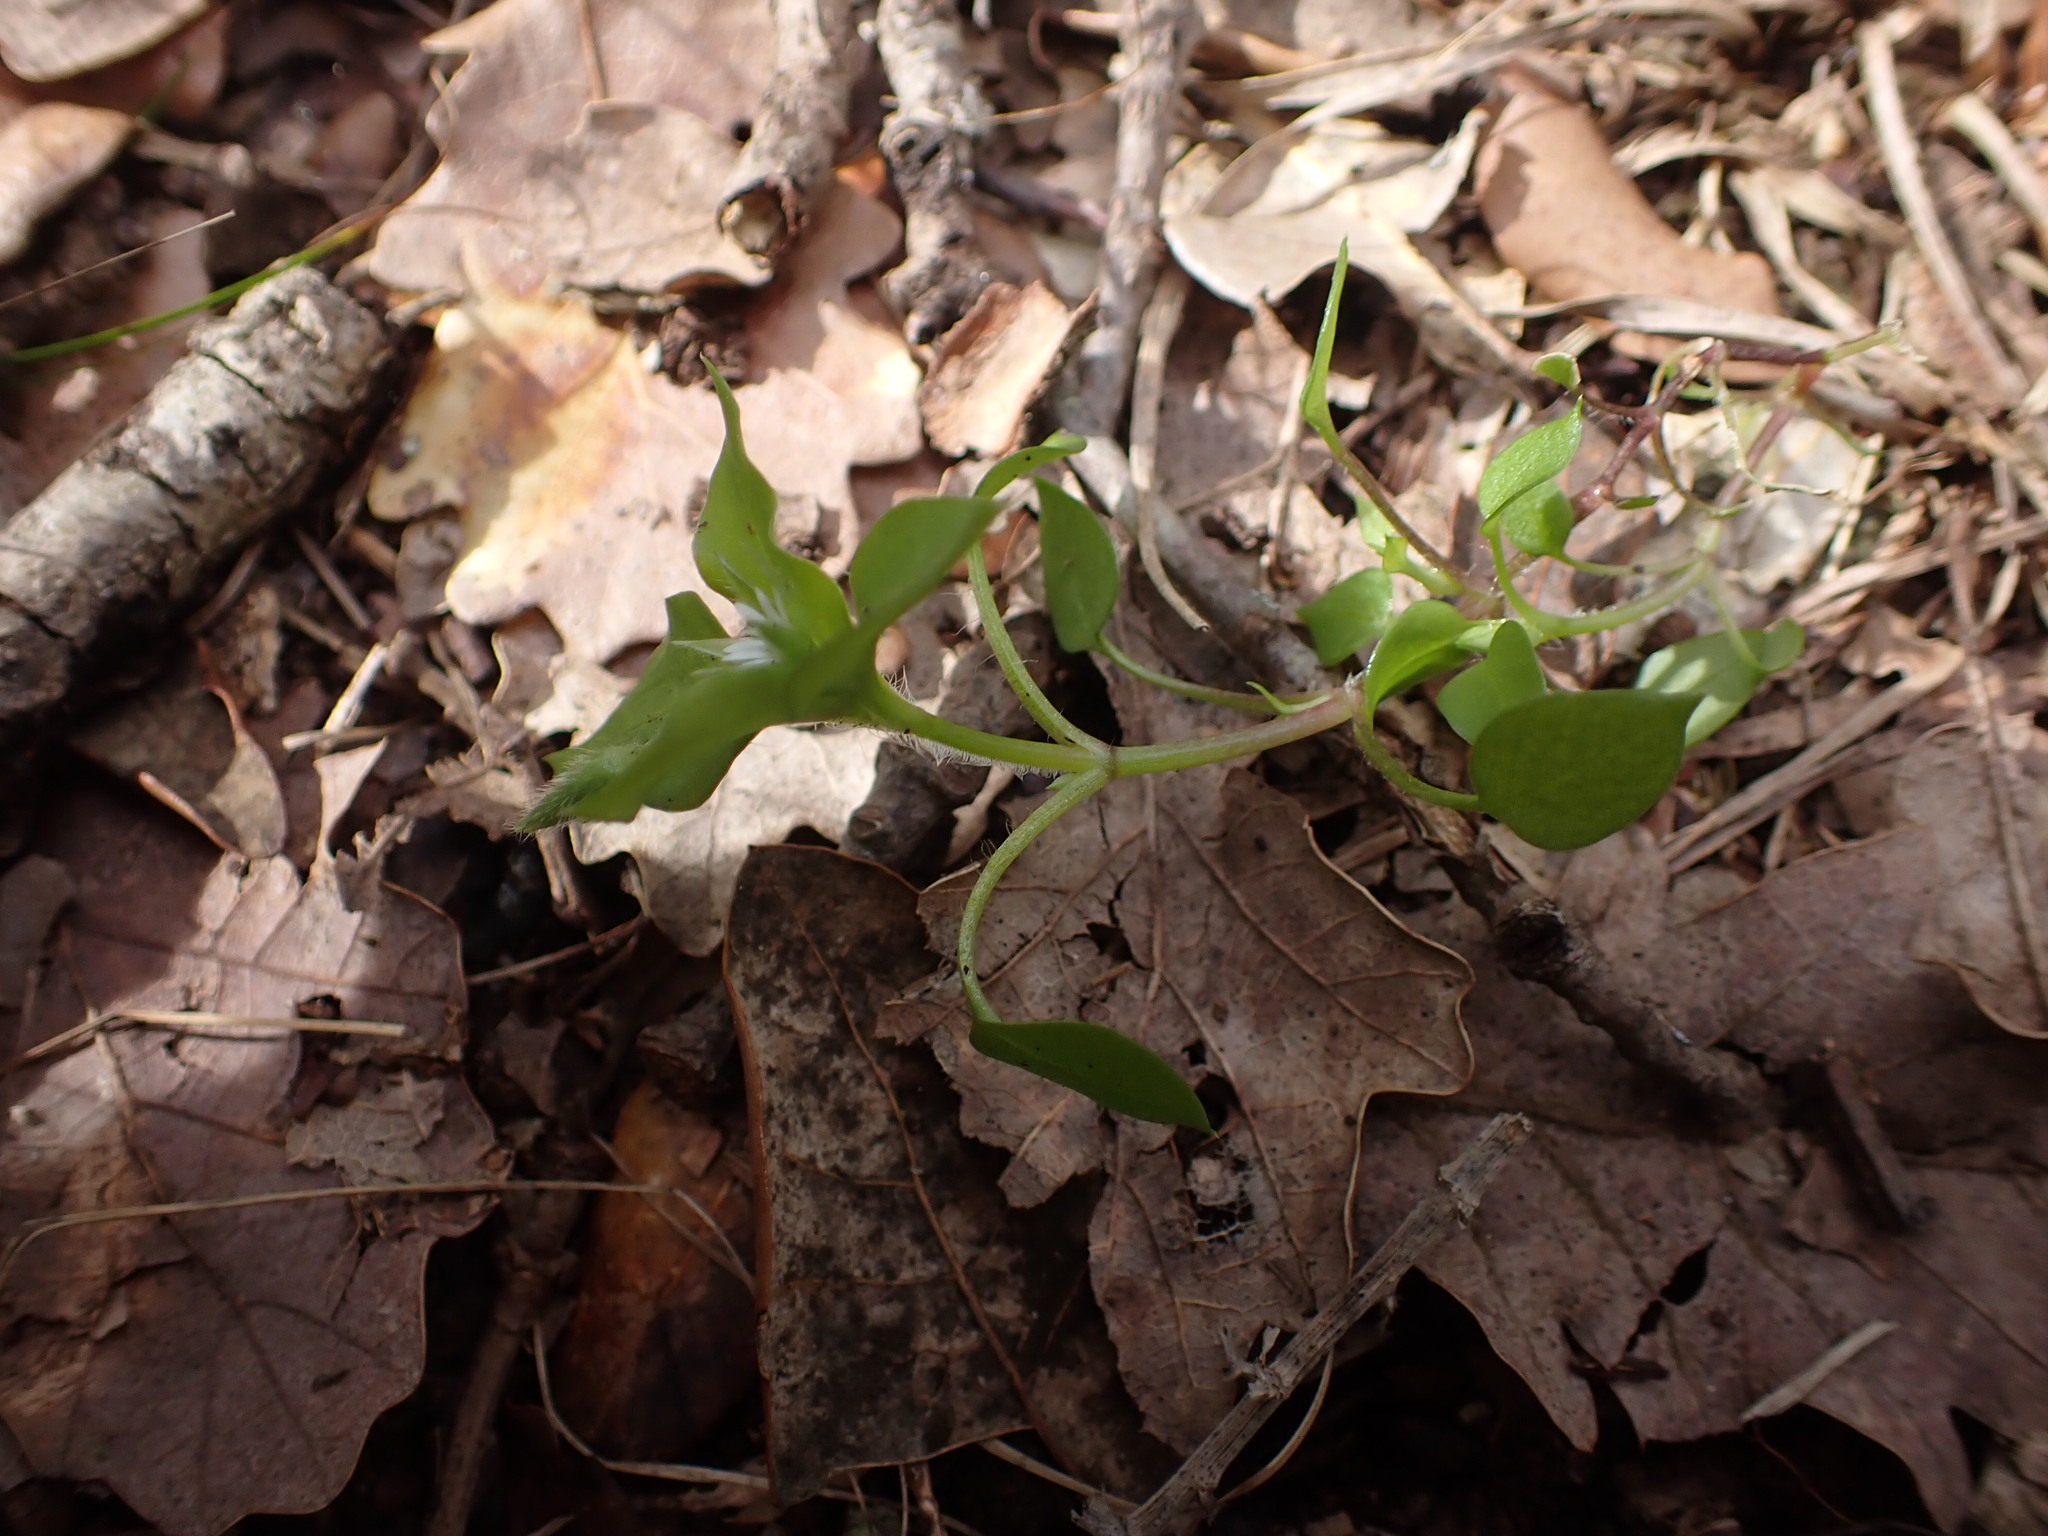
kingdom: Plantae
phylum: Tracheophyta
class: Magnoliopsida
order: Caryophyllales
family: Caryophyllaceae
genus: Stellaria
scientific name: Stellaria media
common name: Common chickweed
